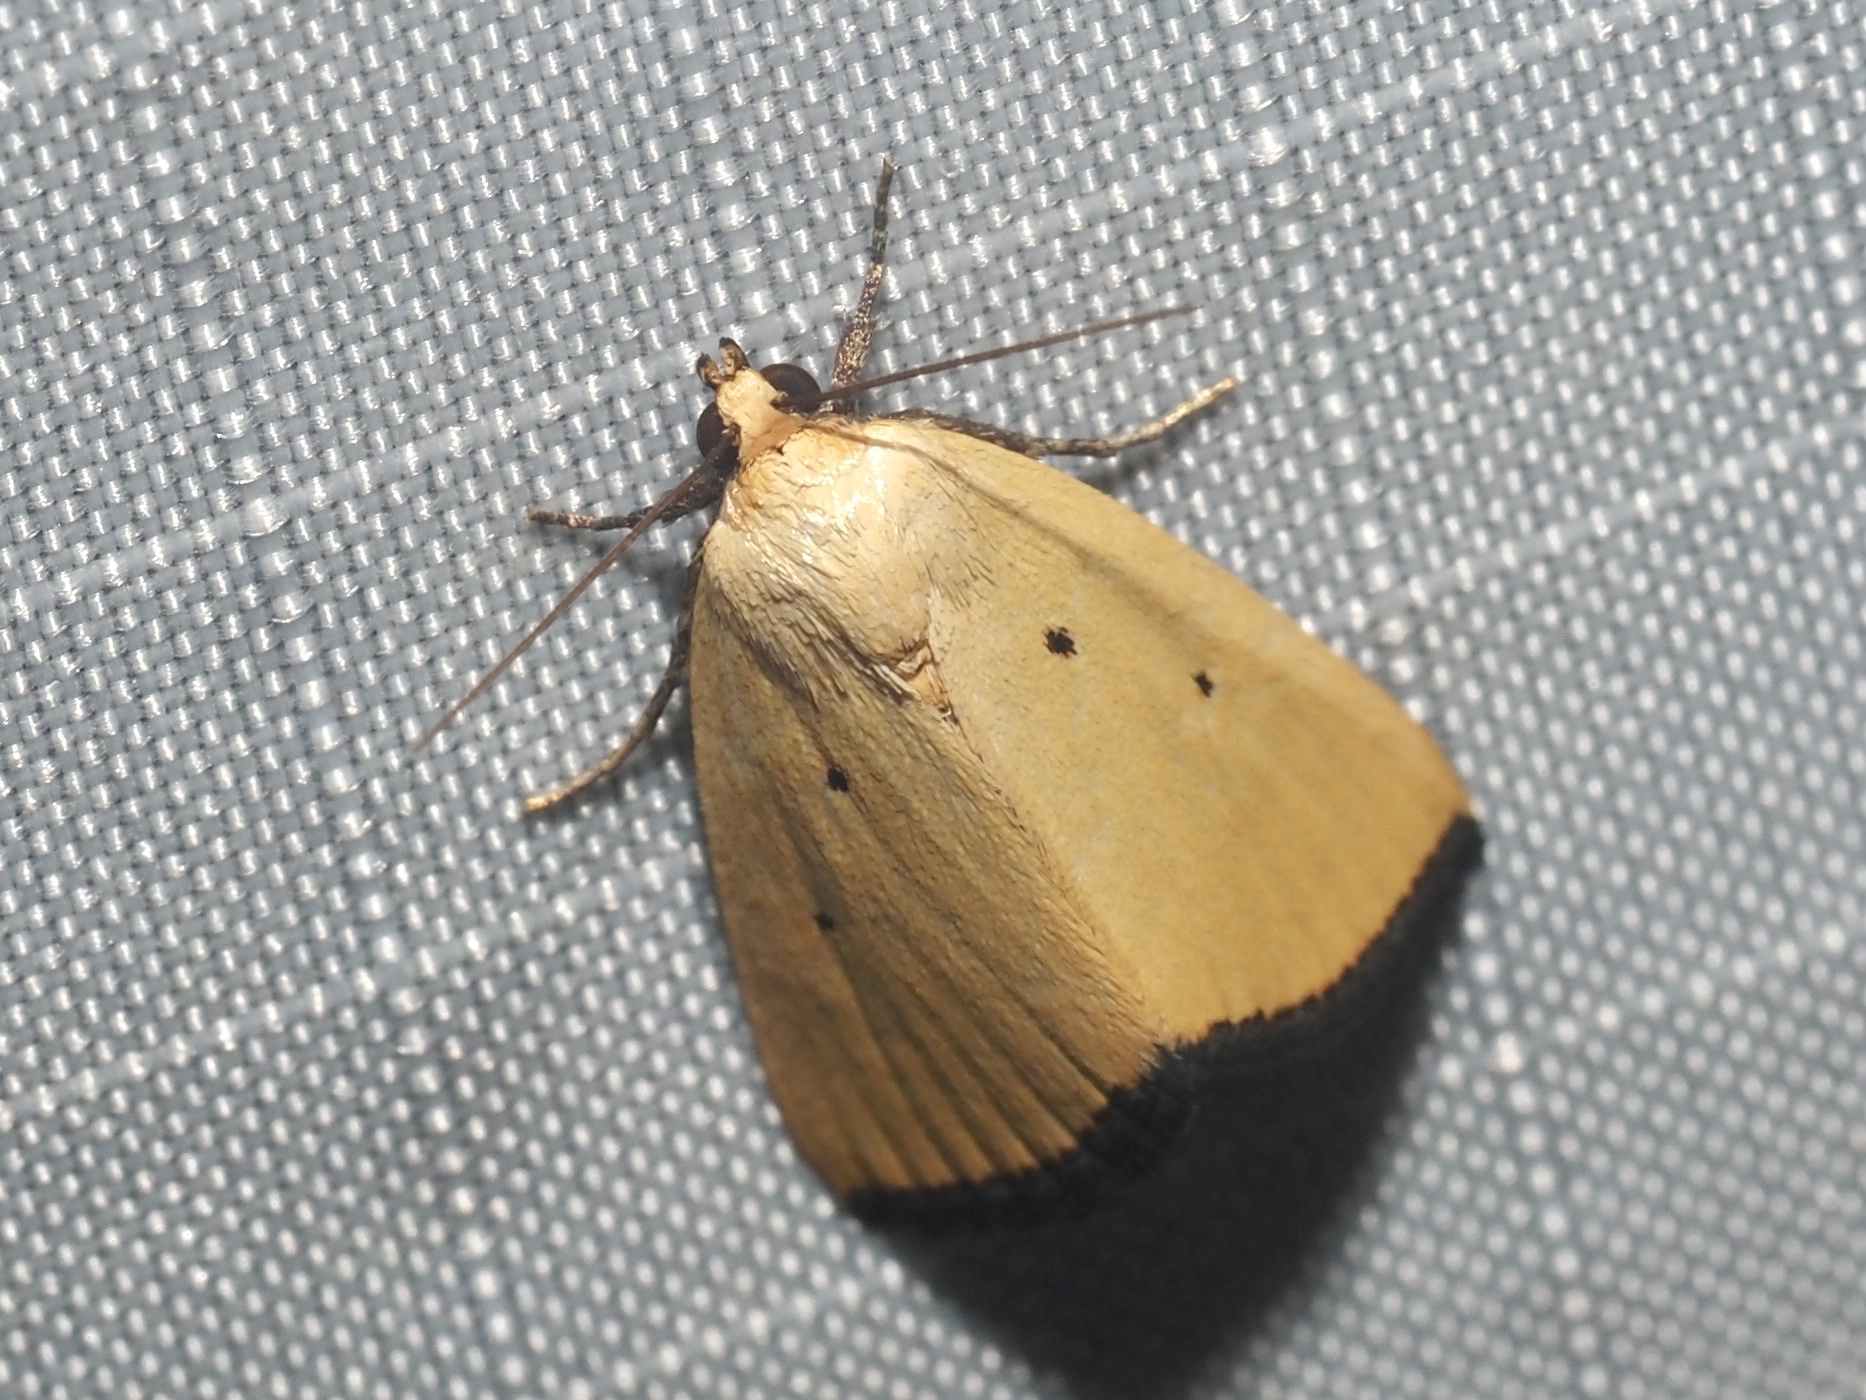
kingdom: Animalia
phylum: Arthropoda
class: Insecta
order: Lepidoptera
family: Noctuidae
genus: Marimatha
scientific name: Marimatha nigrofimbria
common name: Black-bordered lemon moth
